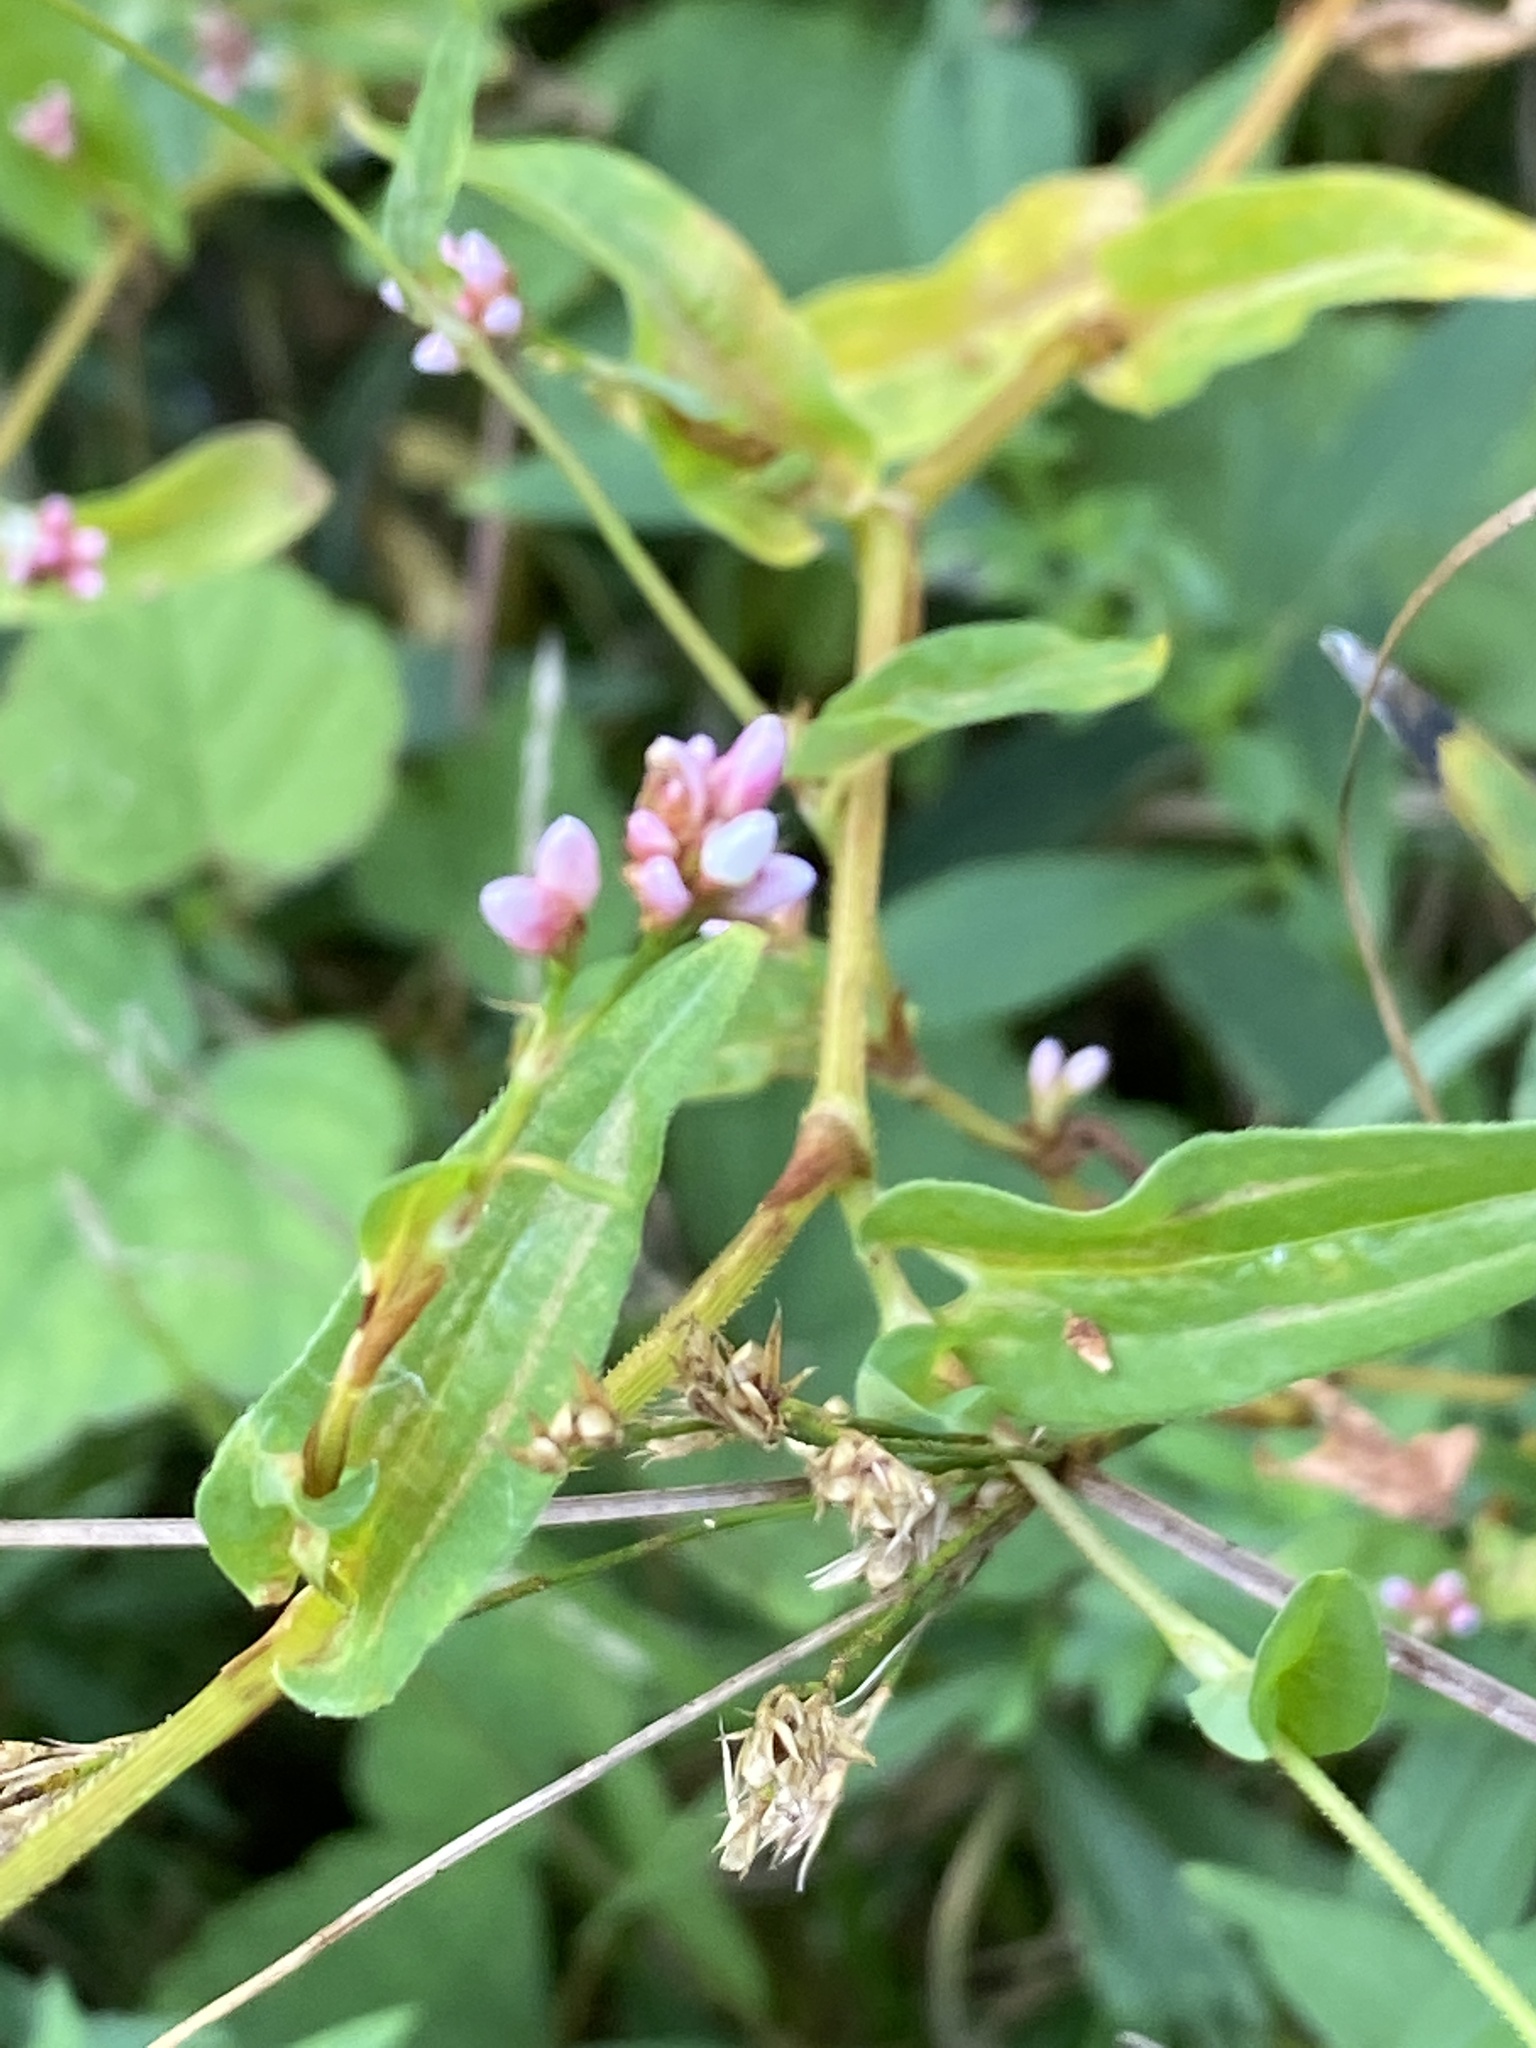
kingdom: Plantae
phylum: Tracheophyta
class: Magnoliopsida
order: Caryophyllales
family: Polygonaceae
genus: Persicaria
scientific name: Persicaria sagittata
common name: American tearthumb
